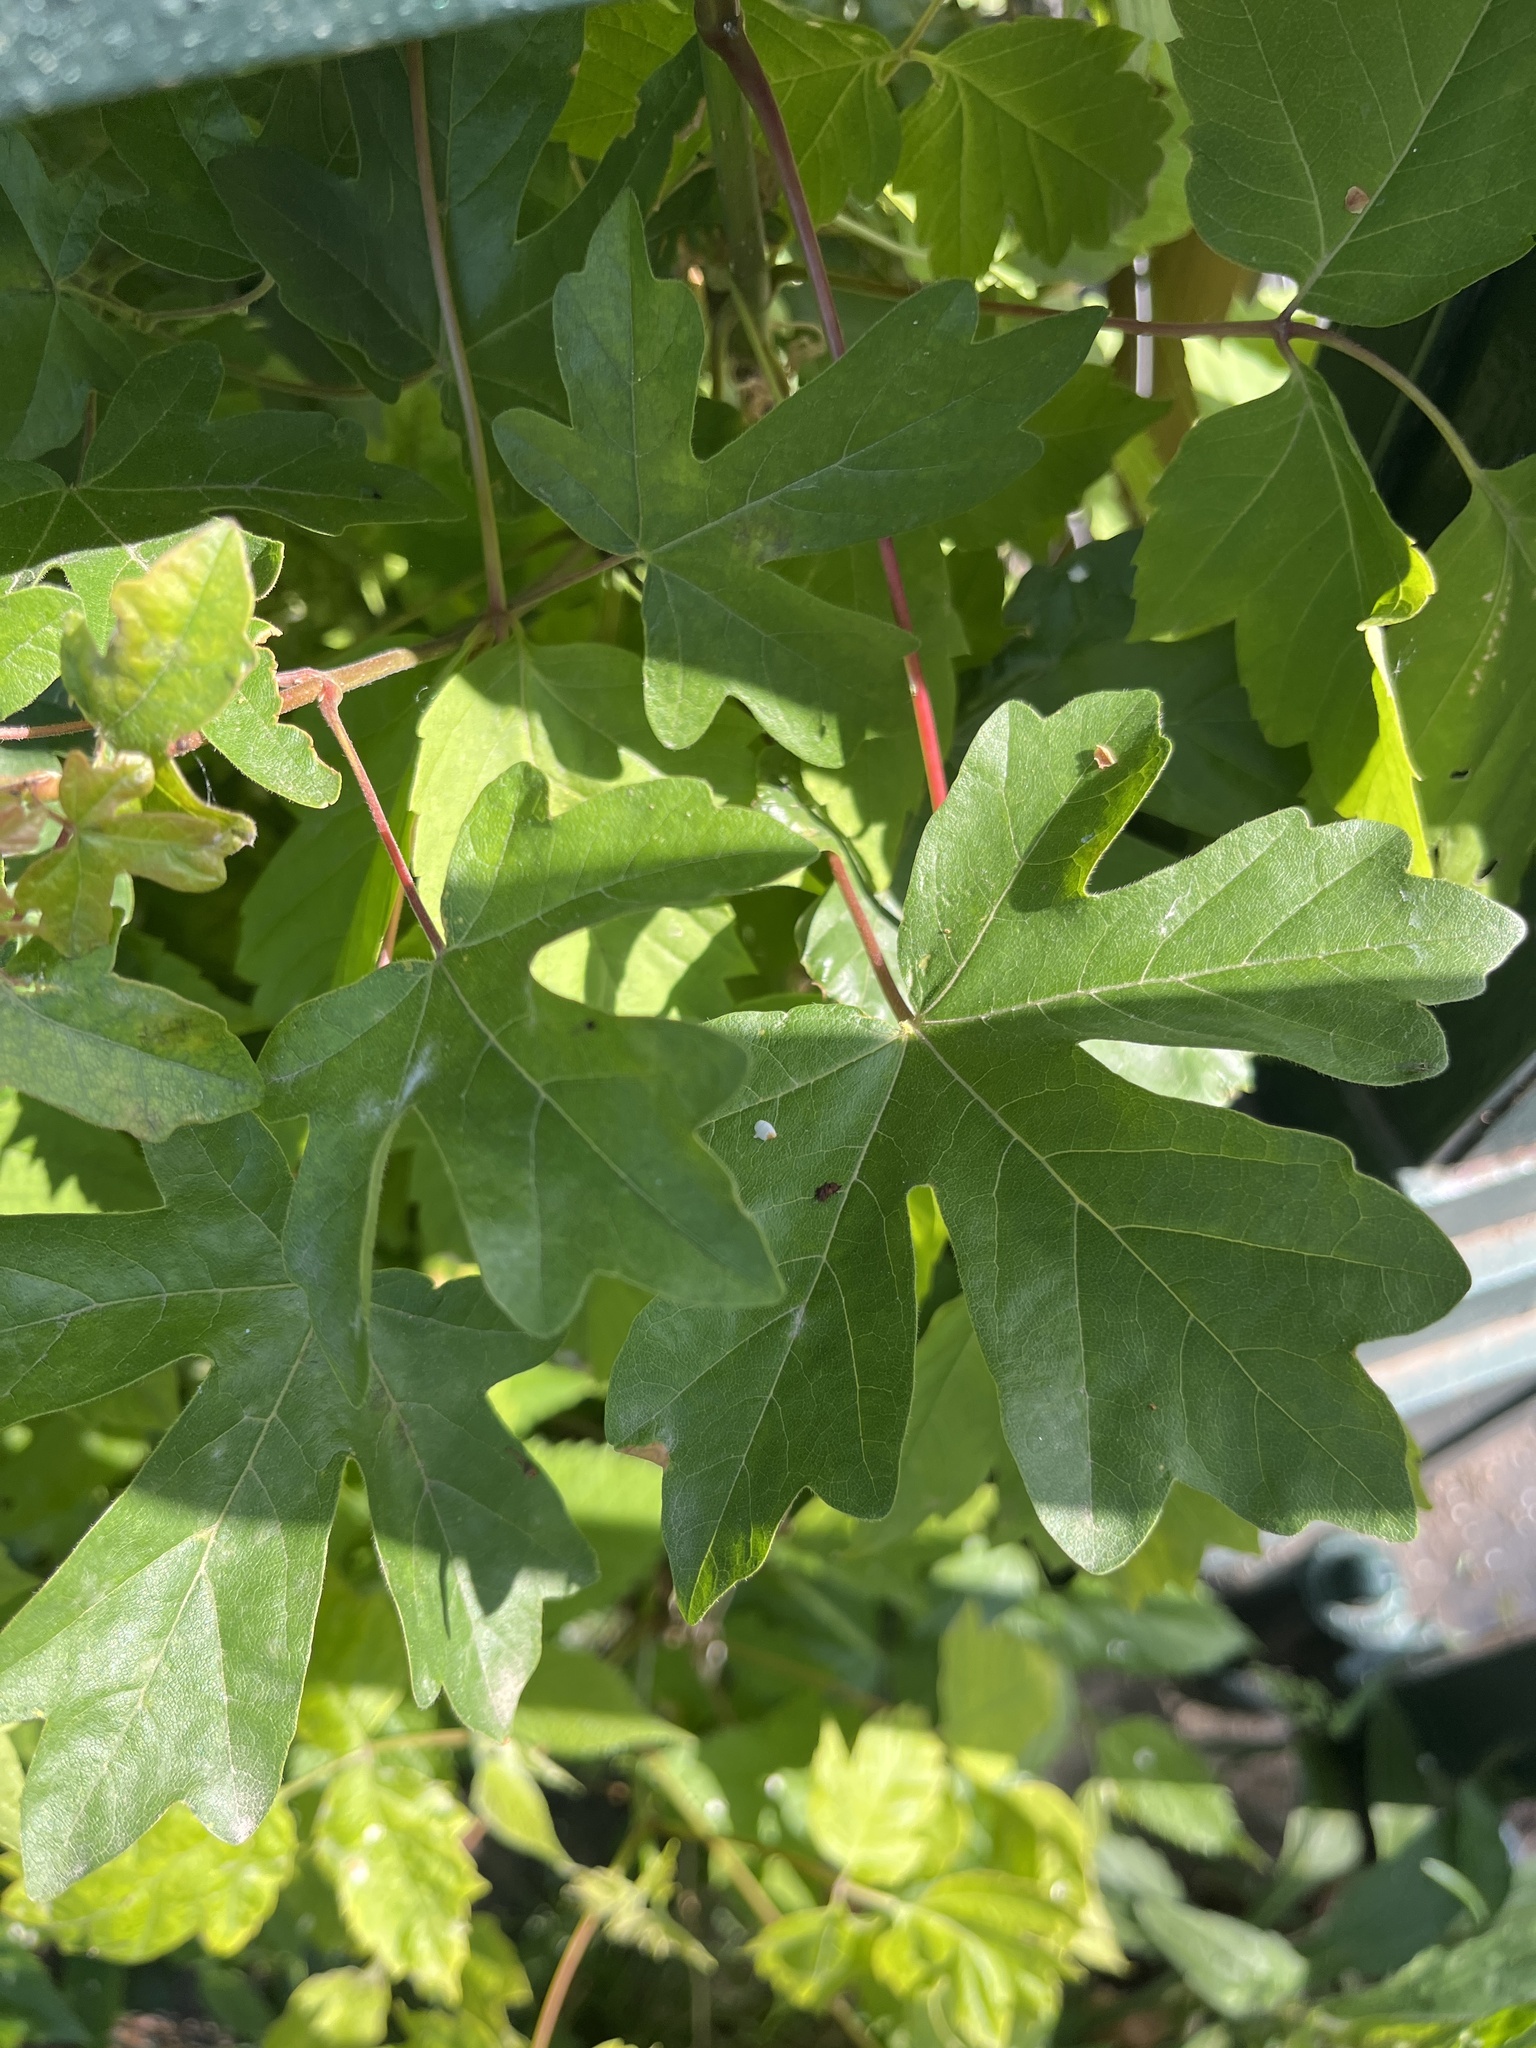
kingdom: Plantae
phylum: Tracheophyta
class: Magnoliopsida
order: Sapindales
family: Sapindaceae
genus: Acer
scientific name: Acer campestre
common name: Field maple
